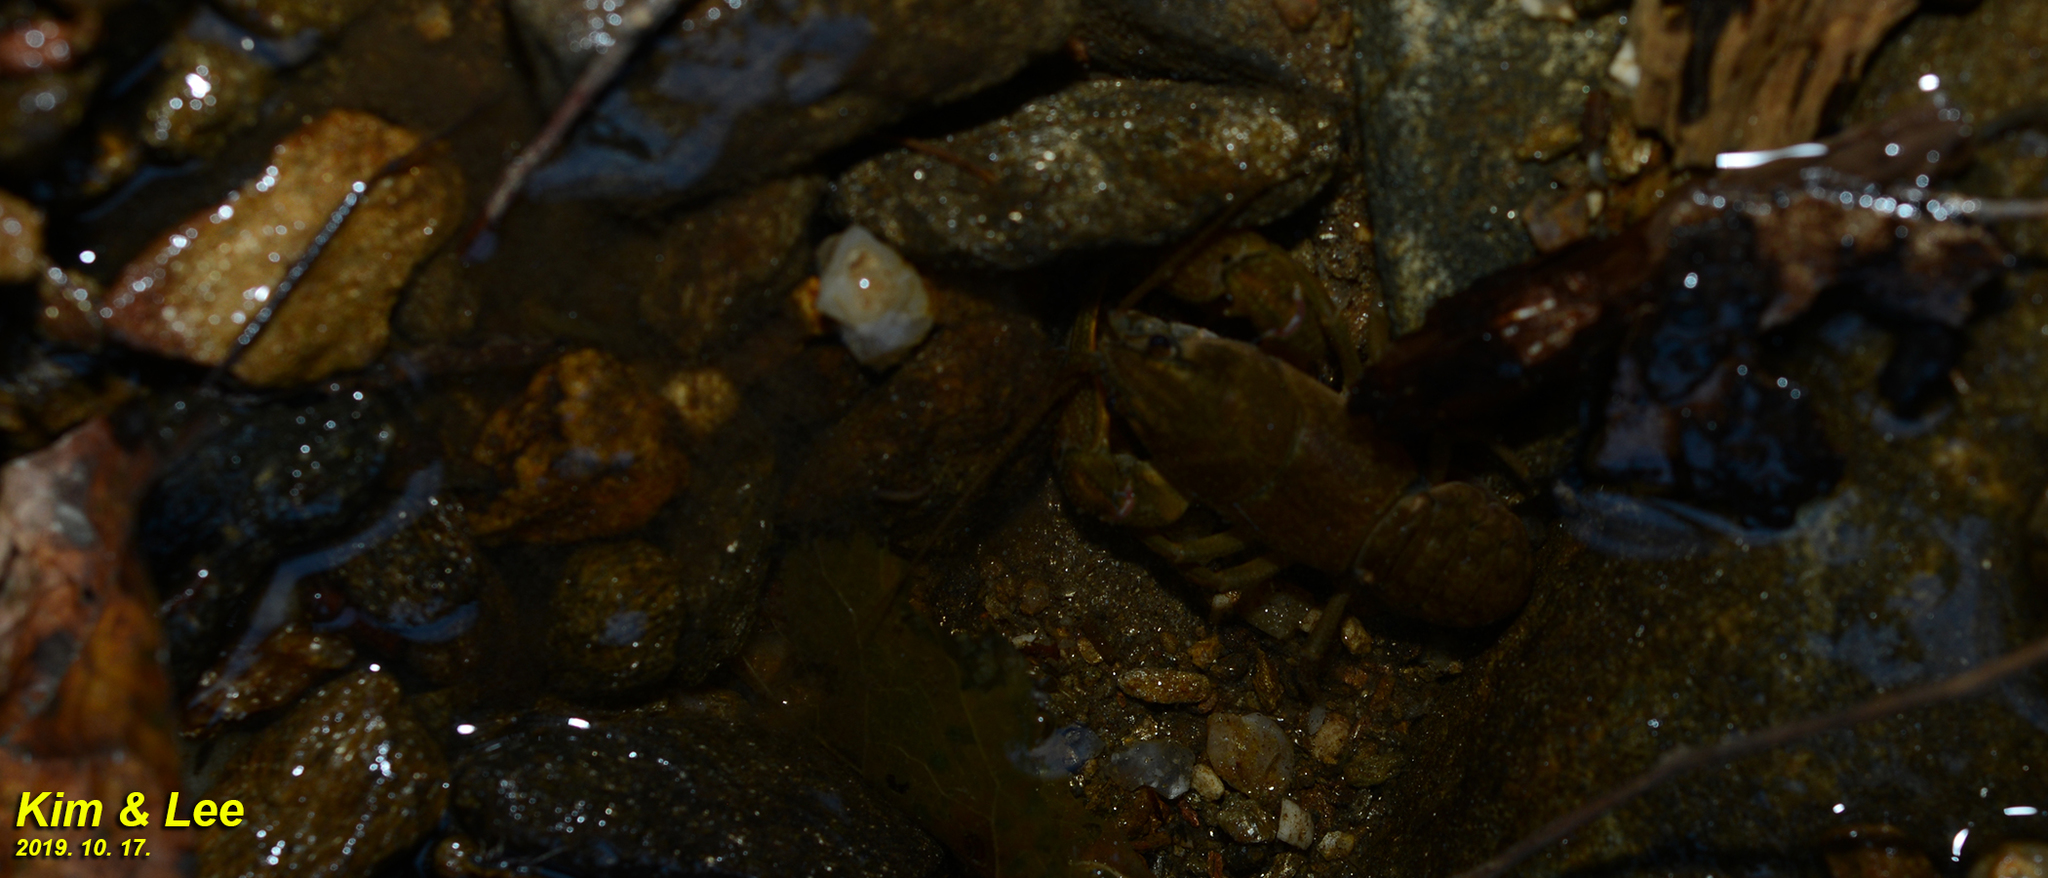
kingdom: Animalia
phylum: Arthropoda
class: Malacostraca
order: Decapoda
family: Cambaroididae
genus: Cambaroides
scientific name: Cambaroides similis
